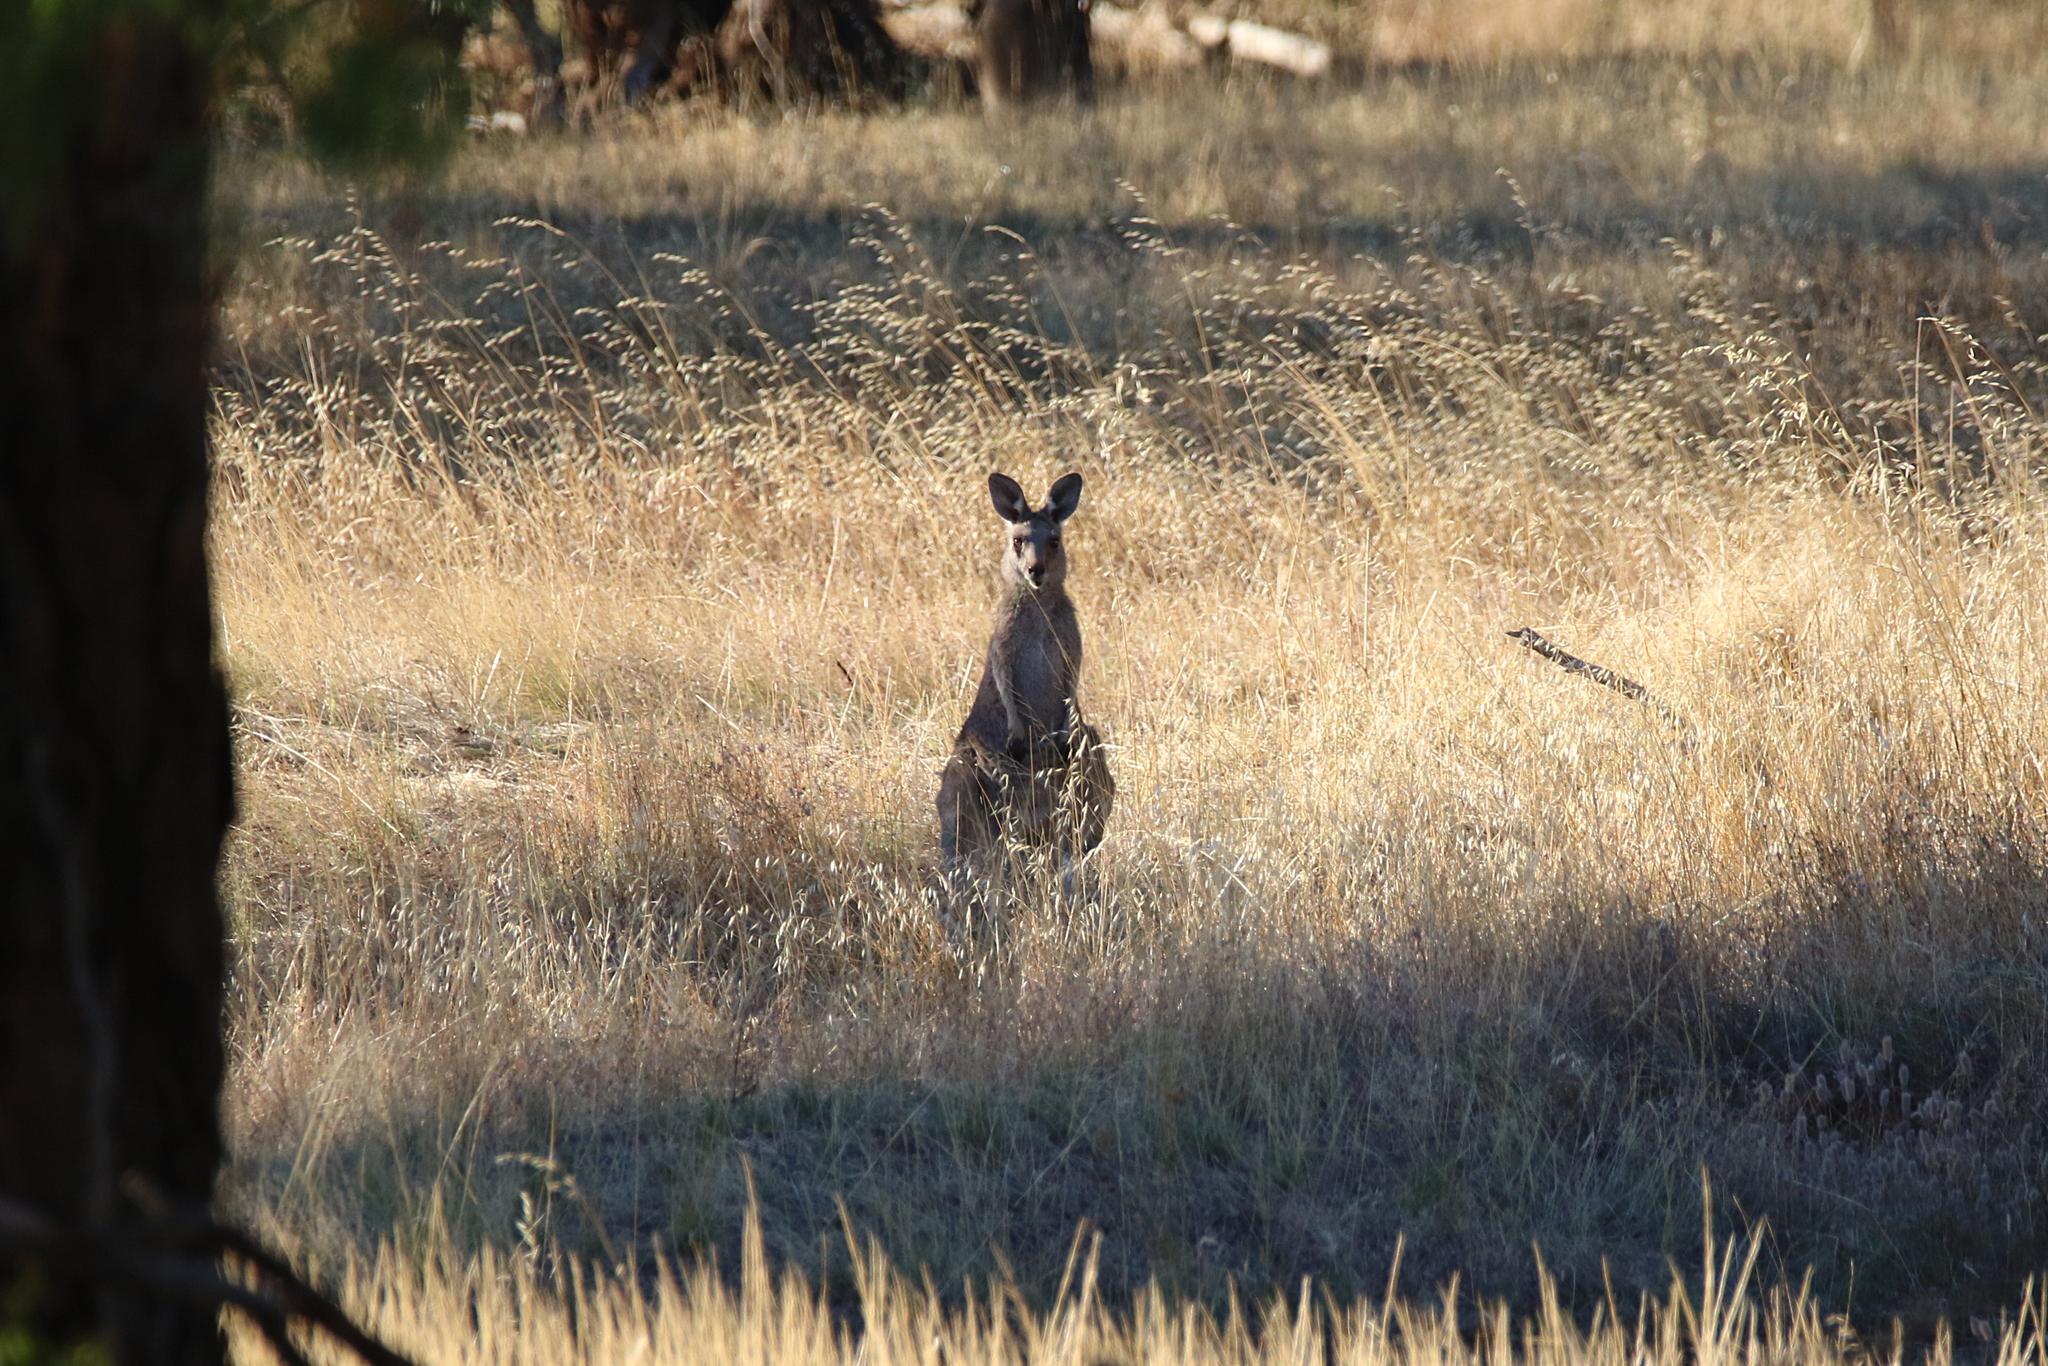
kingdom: Animalia
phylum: Chordata
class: Mammalia
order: Diprotodontia
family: Macropodidae
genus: Macropus
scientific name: Macropus giganteus
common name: Eastern grey kangaroo
